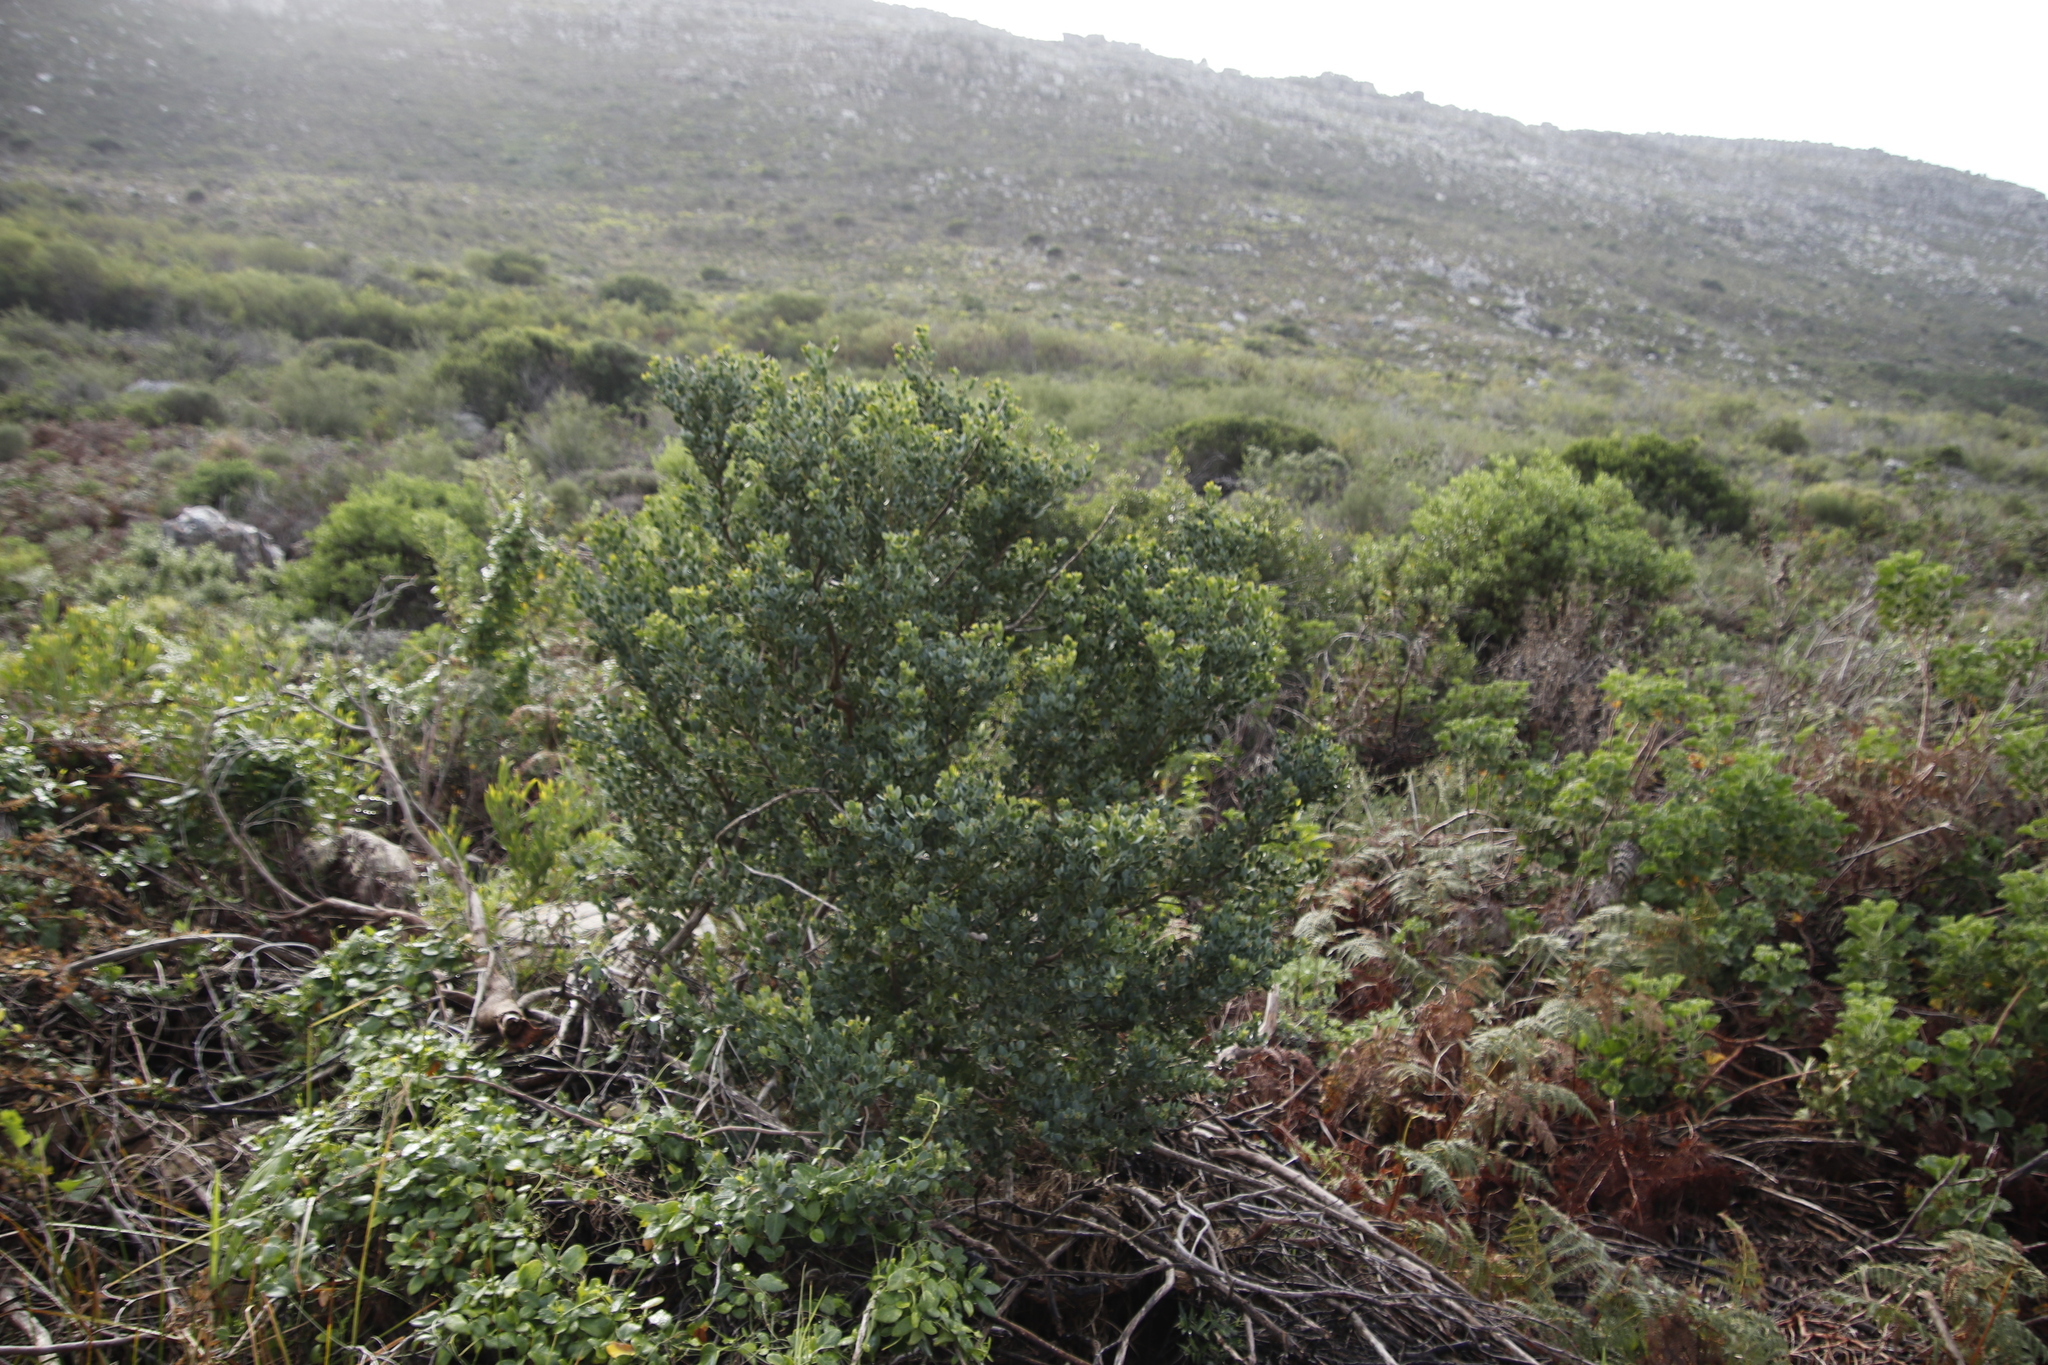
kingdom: Plantae
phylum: Tracheophyta
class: Magnoliopsida
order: Santalales
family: Santalaceae
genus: Osyris
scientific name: Osyris compressa
